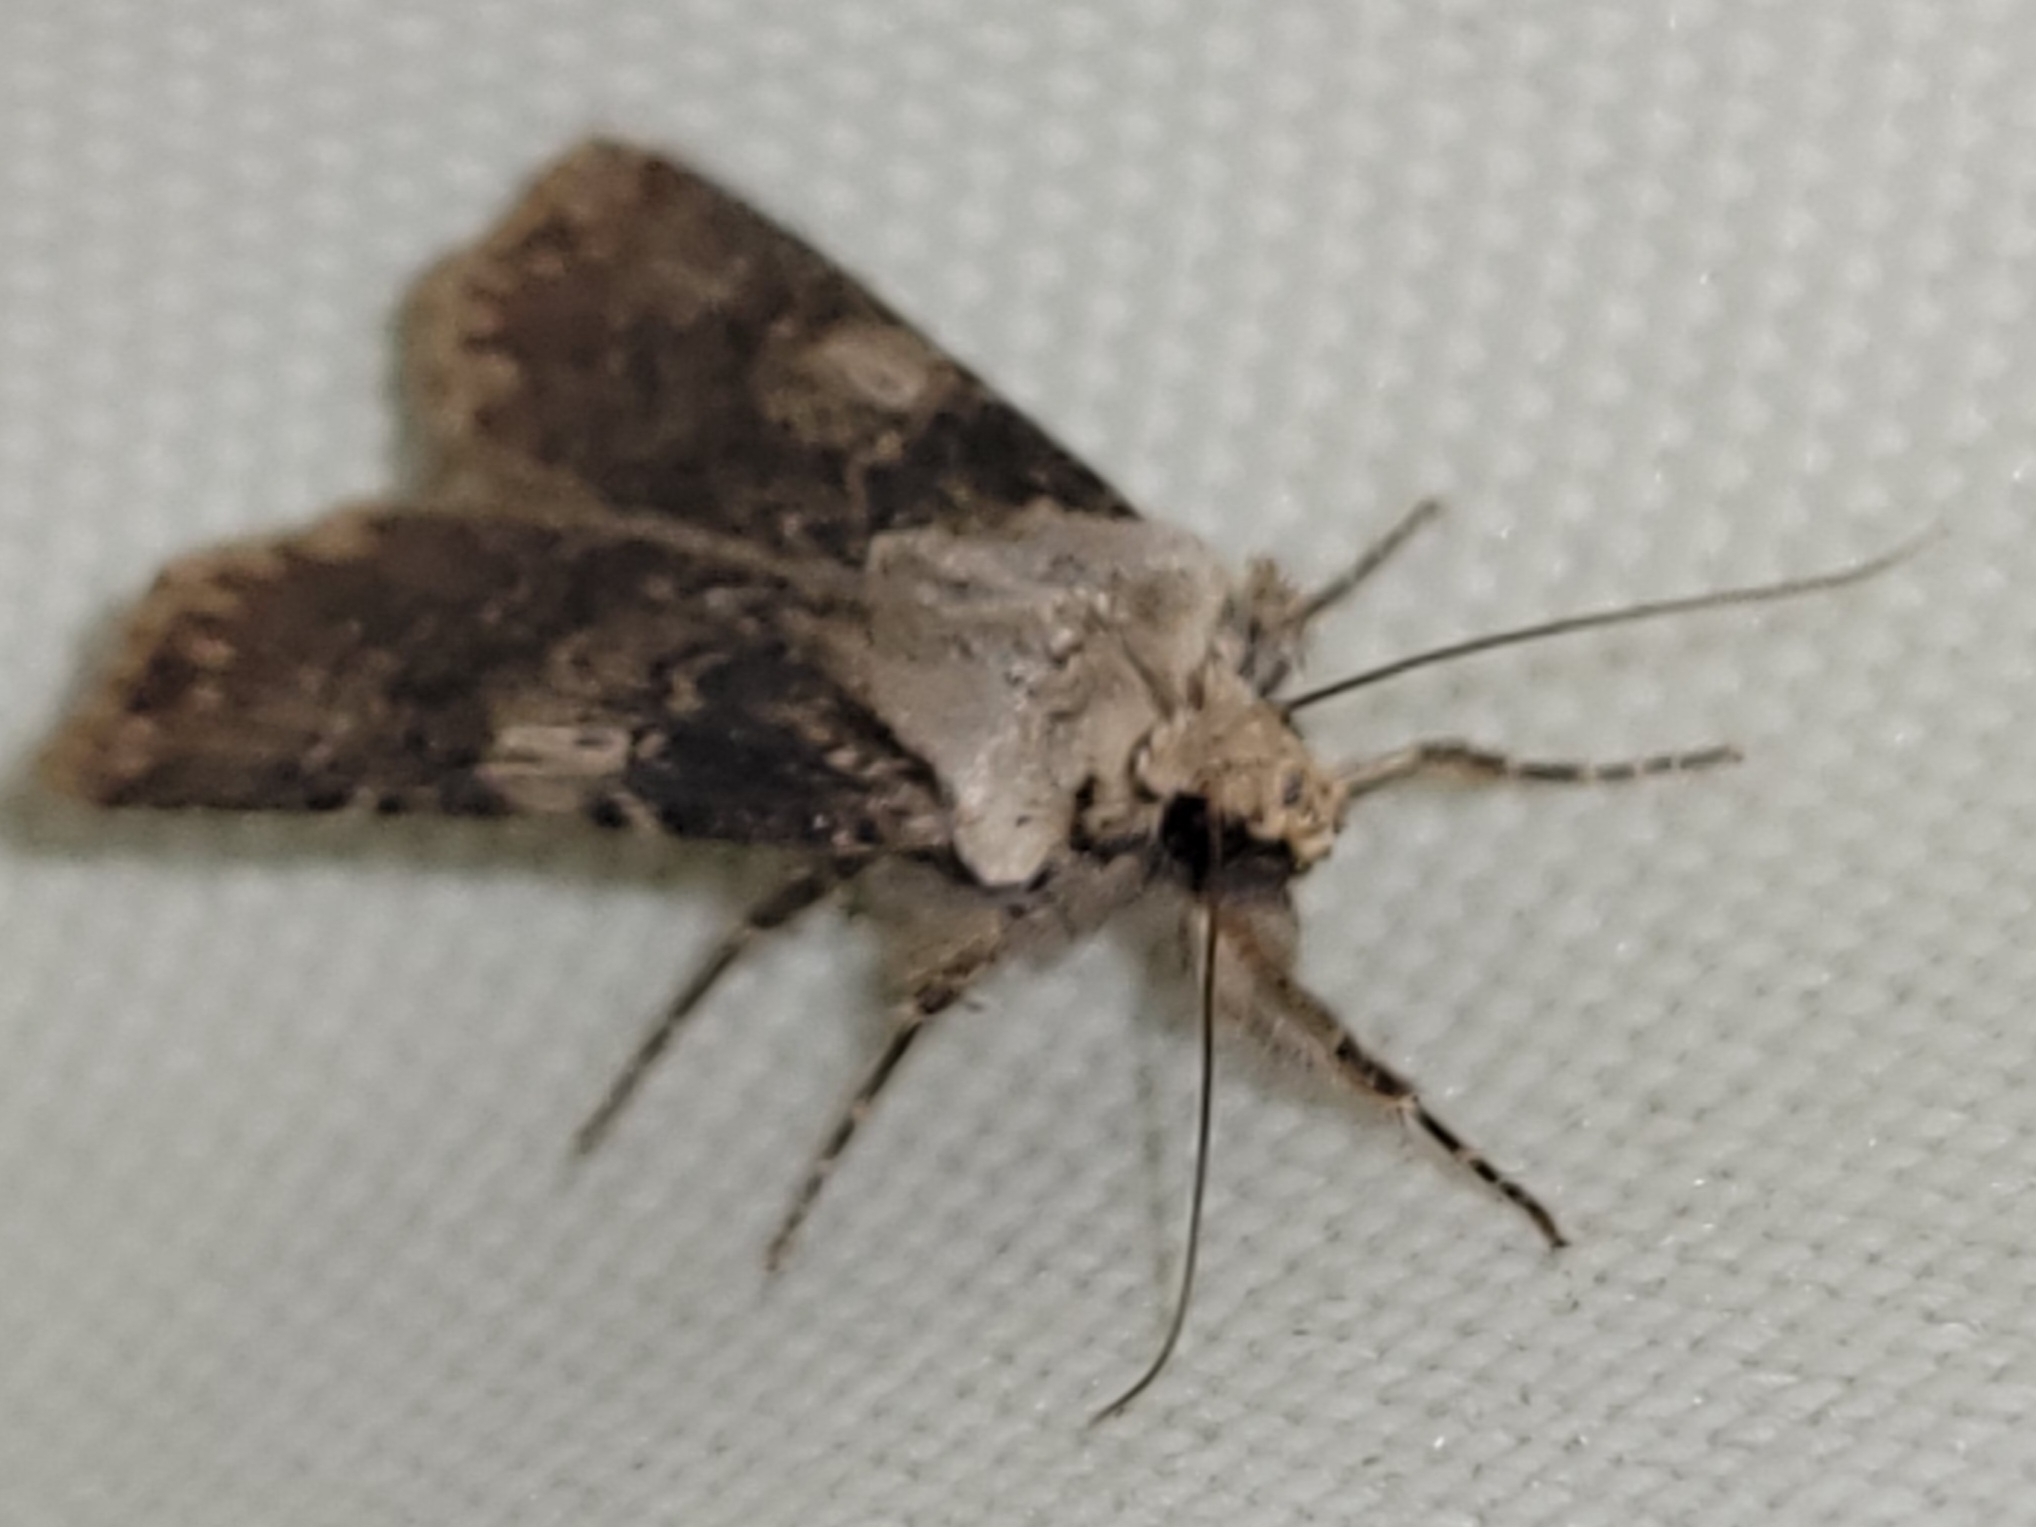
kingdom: Animalia
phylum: Arthropoda
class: Insecta
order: Lepidoptera
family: Noctuidae
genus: Agrotis
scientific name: Agrotis puta
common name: Shuttle-shaped dart
